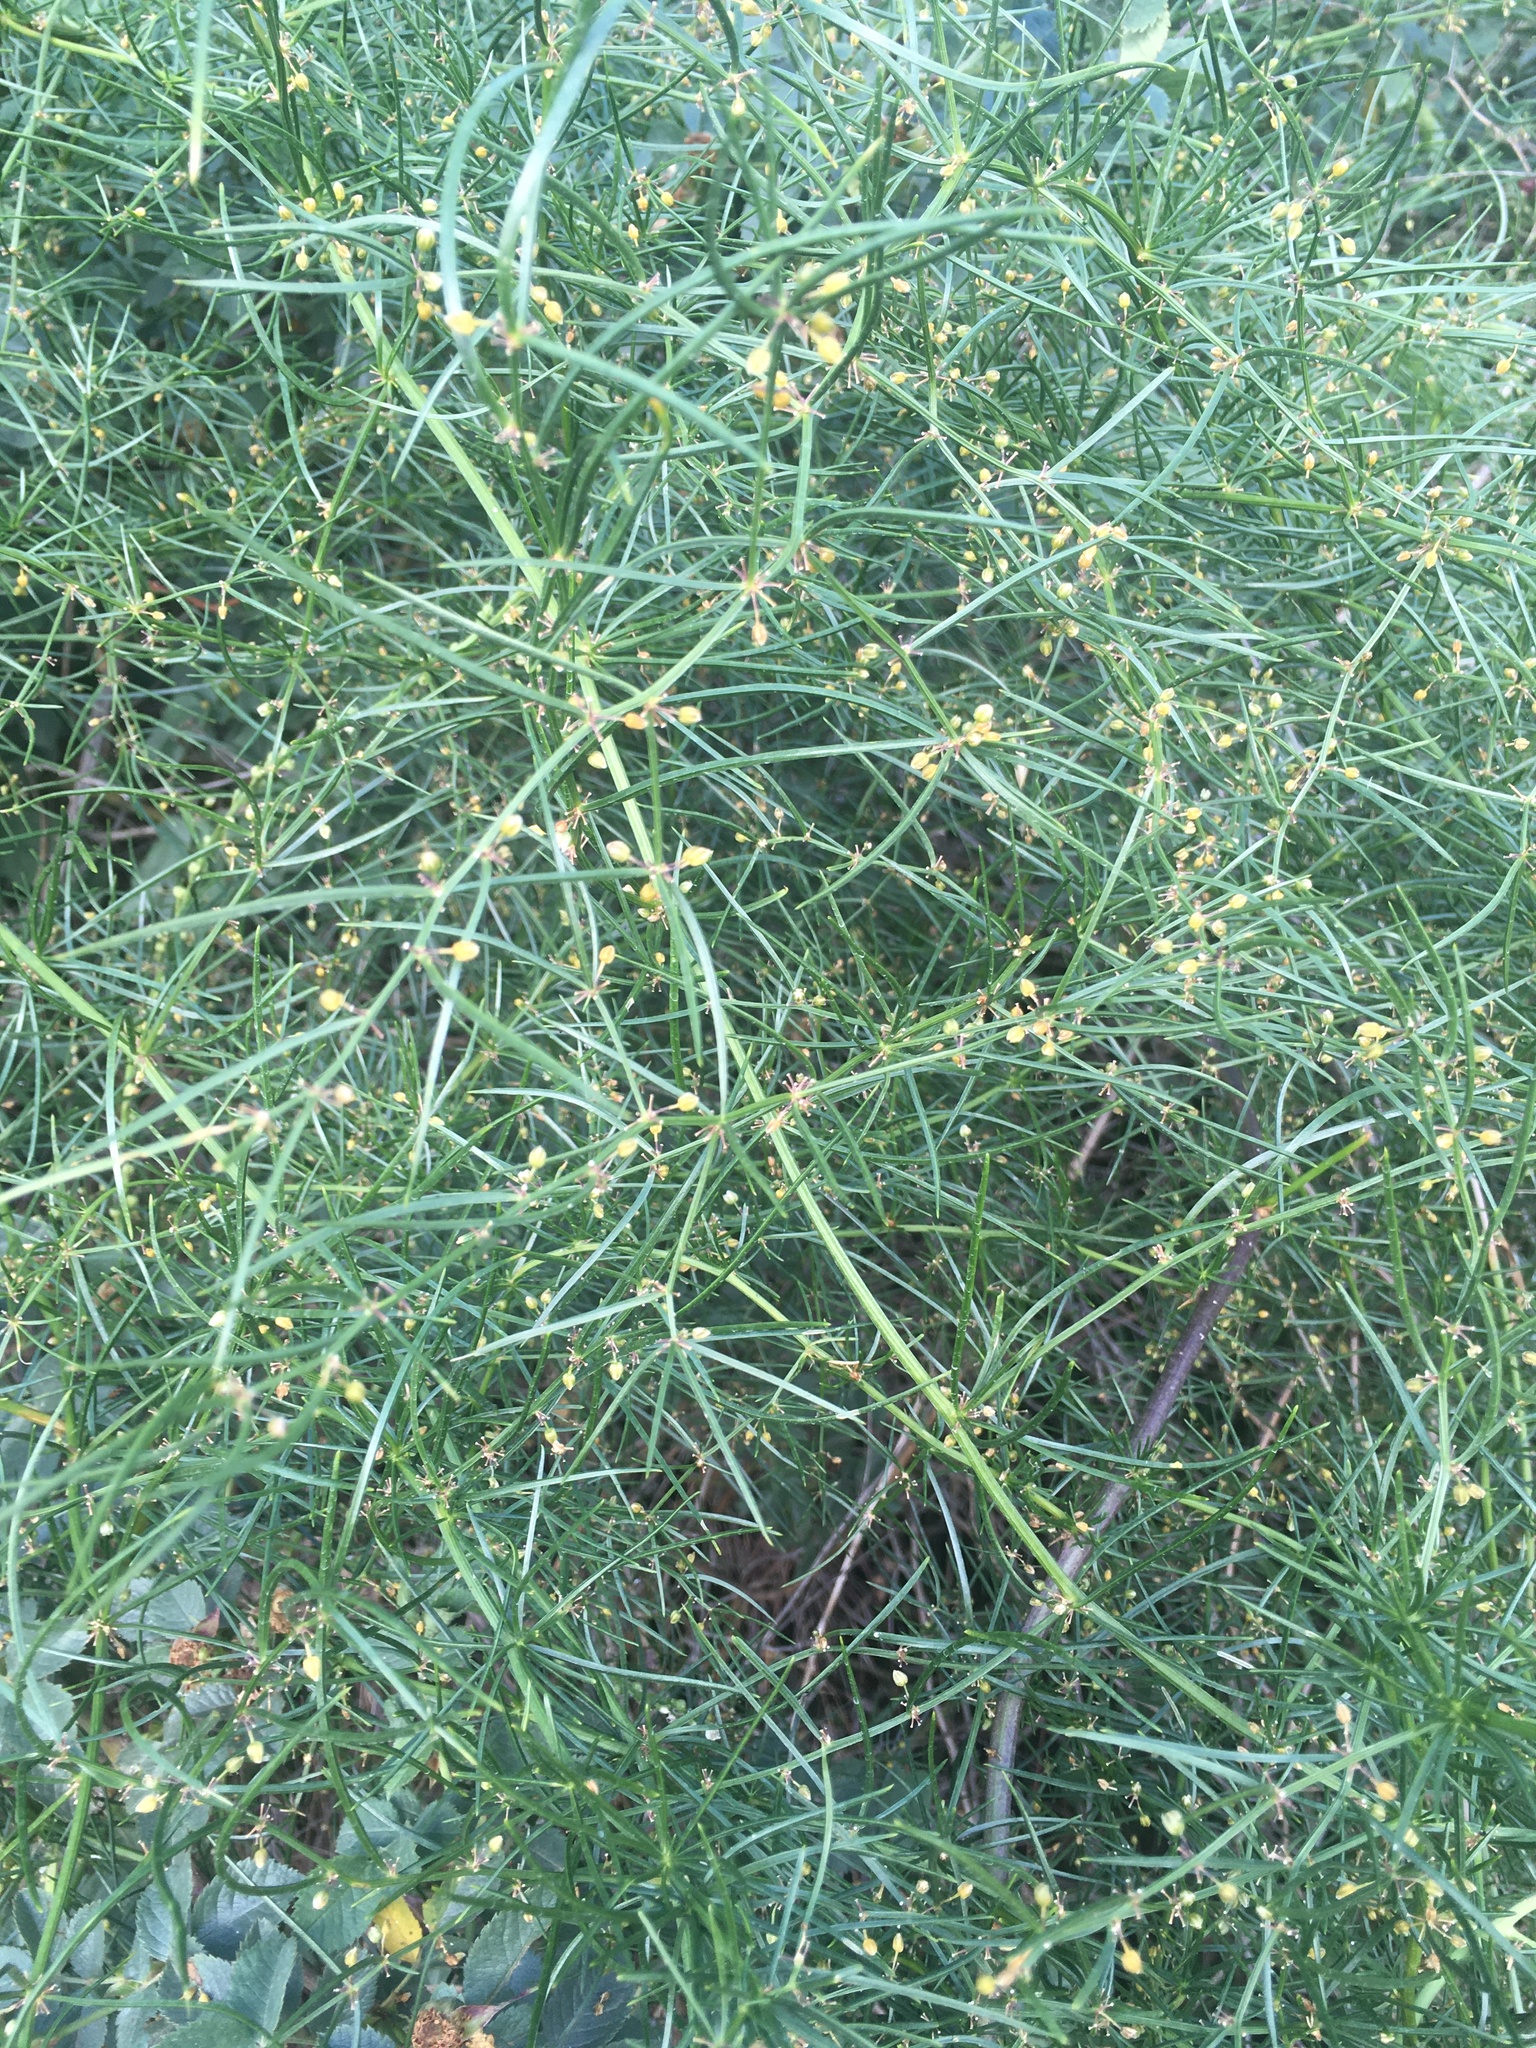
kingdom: Plantae
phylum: Tracheophyta
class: Liliopsida
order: Asparagales
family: Asparagaceae
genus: Asparagus
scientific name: Asparagus verticillatus
